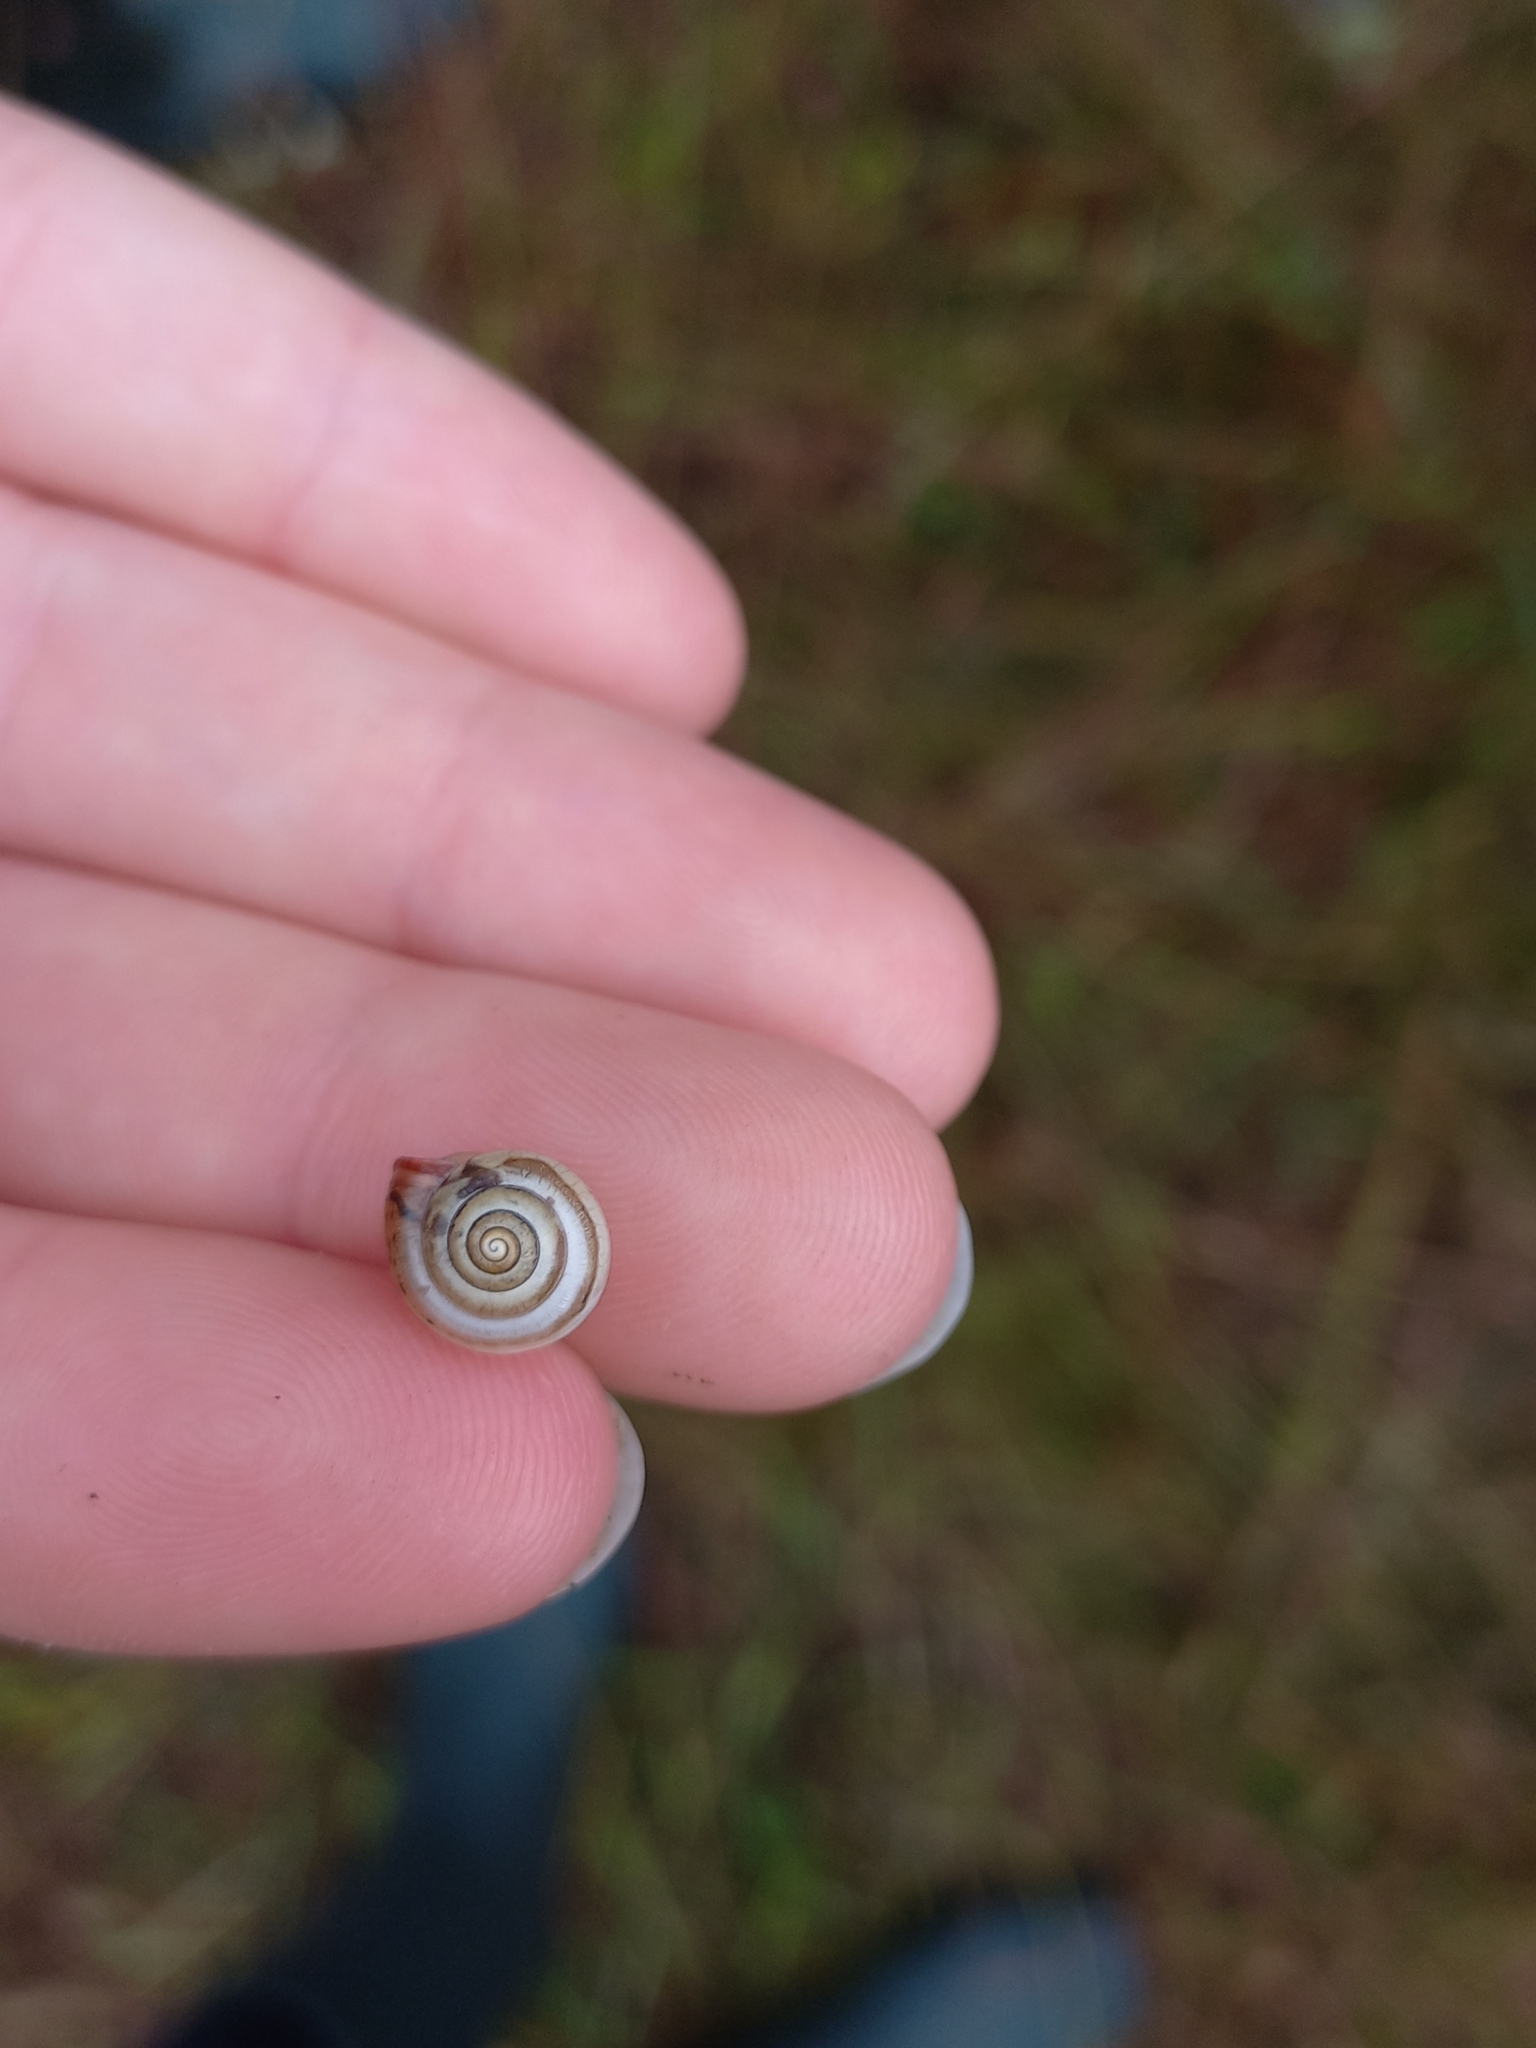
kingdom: Animalia
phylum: Mollusca
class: Gastropoda
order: Stylommatophora
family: Hygromiidae
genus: Monacha
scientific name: Monacha cartusiana
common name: Carthusian snail
